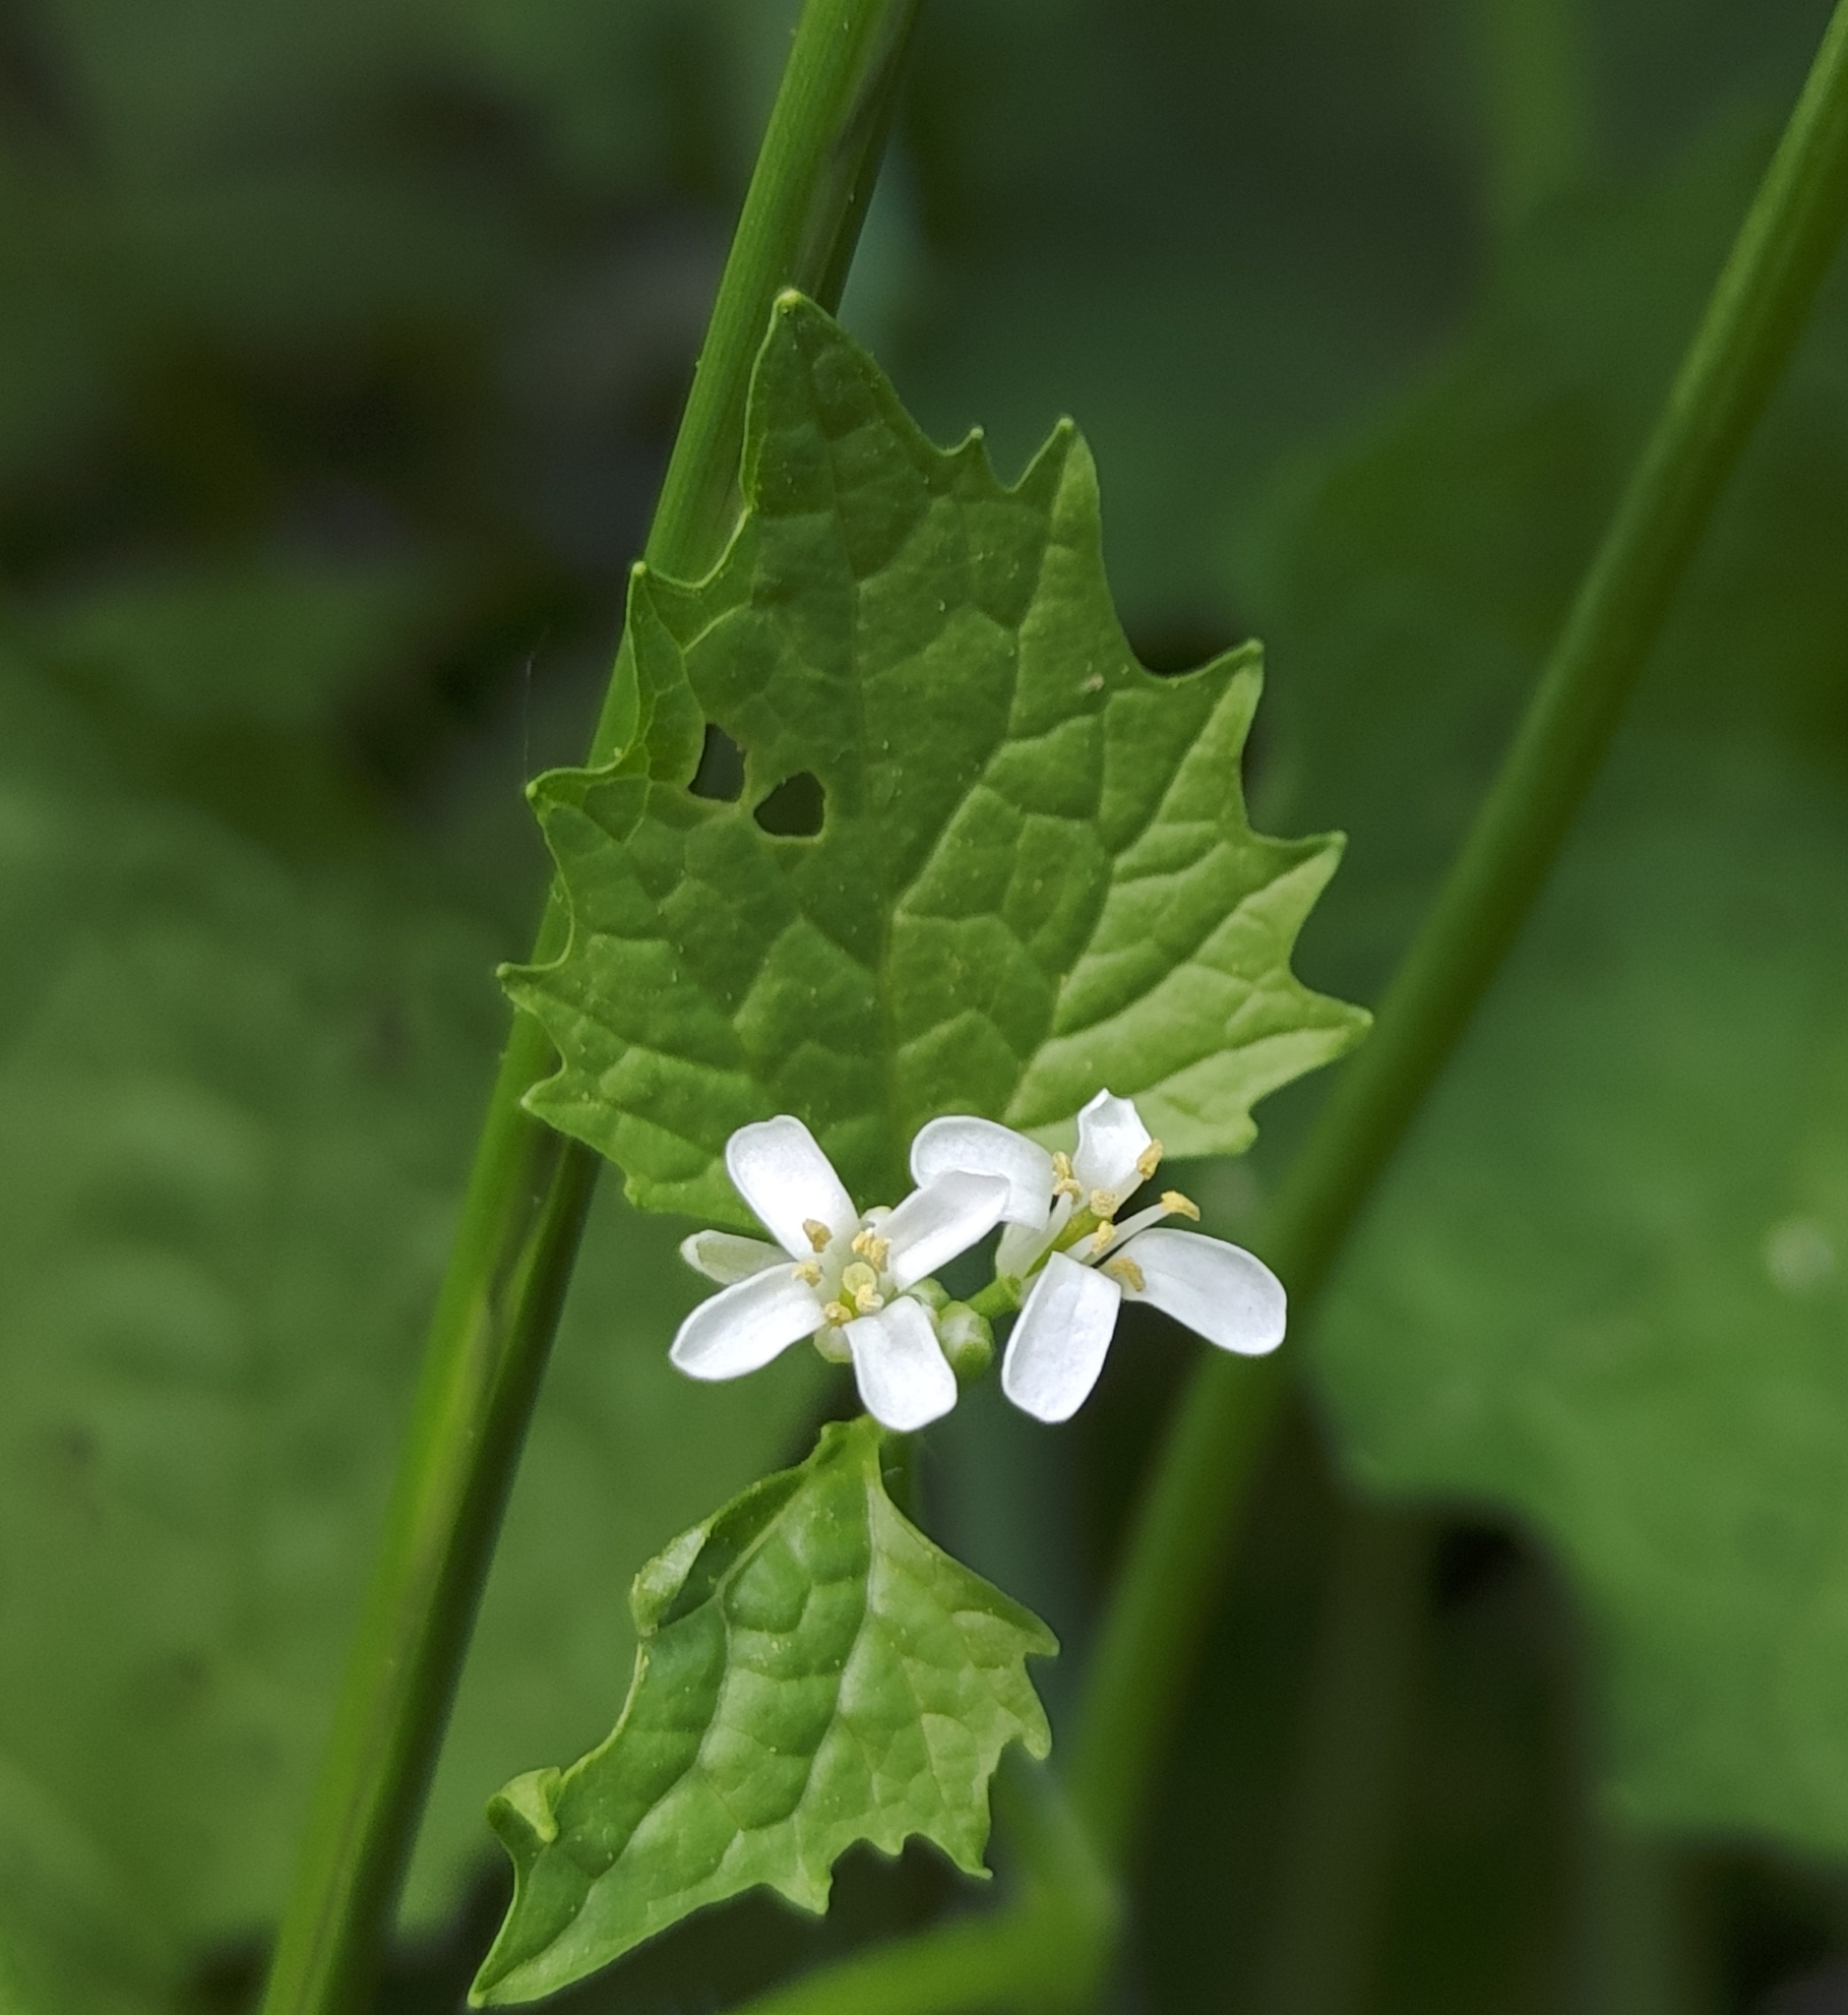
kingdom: Plantae
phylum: Tracheophyta
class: Magnoliopsida
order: Brassicales
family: Brassicaceae
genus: Alliaria
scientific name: Alliaria petiolata
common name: Garlic mustard
